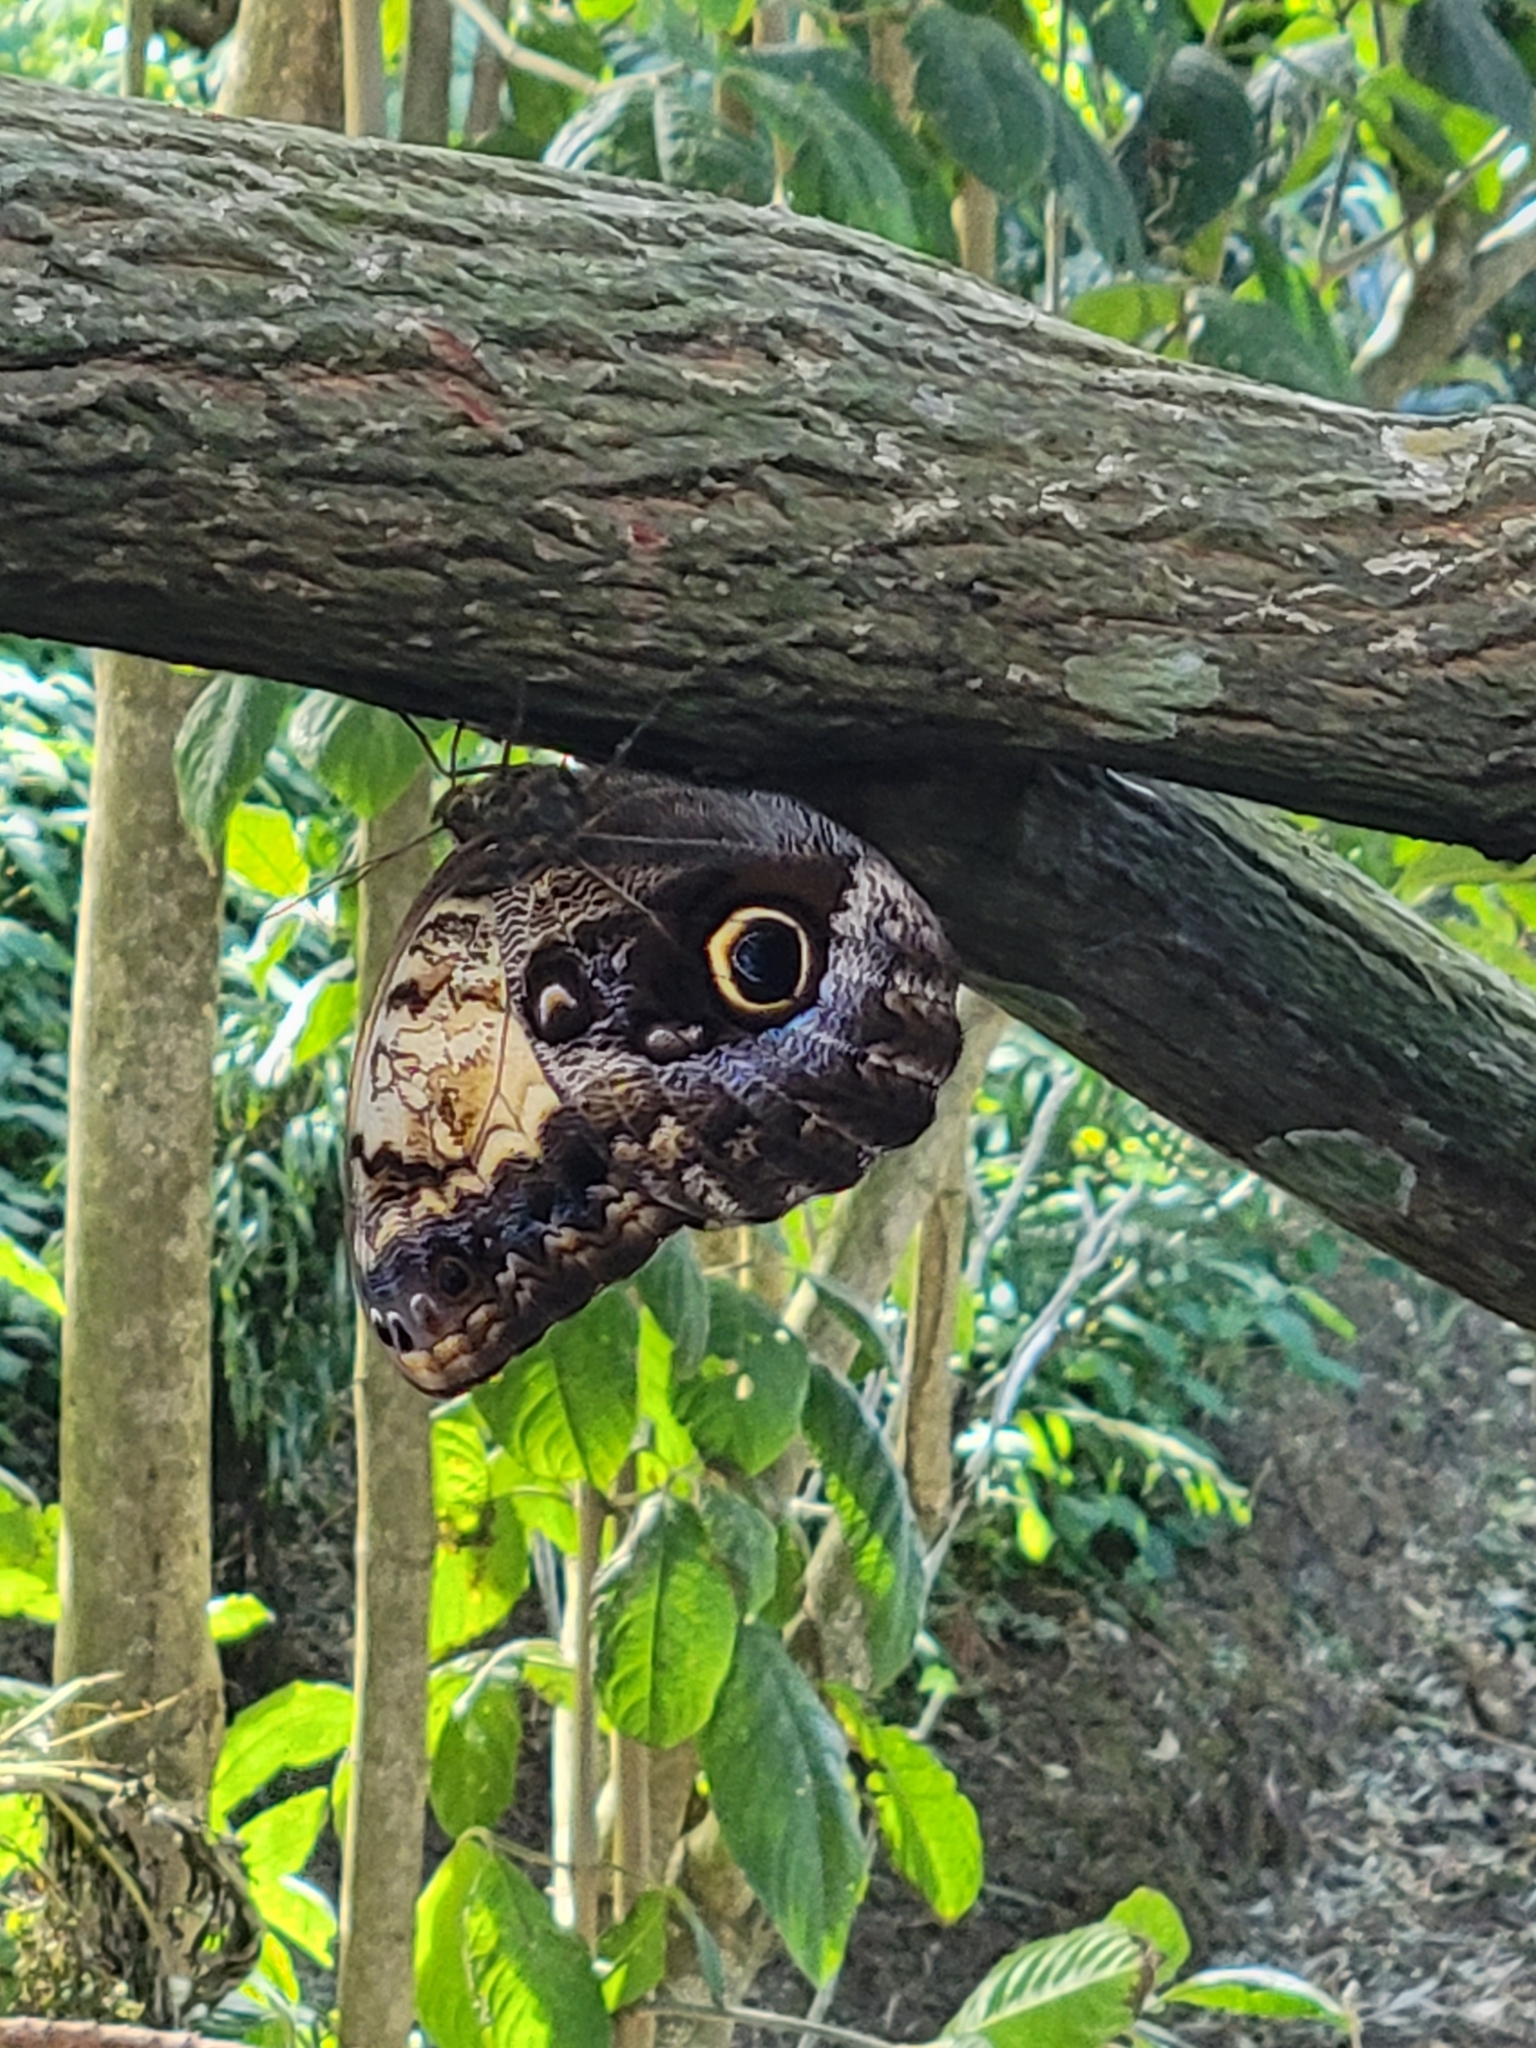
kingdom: Animalia
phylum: Arthropoda
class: Insecta
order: Lepidoptera
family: Nymphalidae
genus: Caligo
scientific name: Caligo telamonius
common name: Pale owl-butterfly
